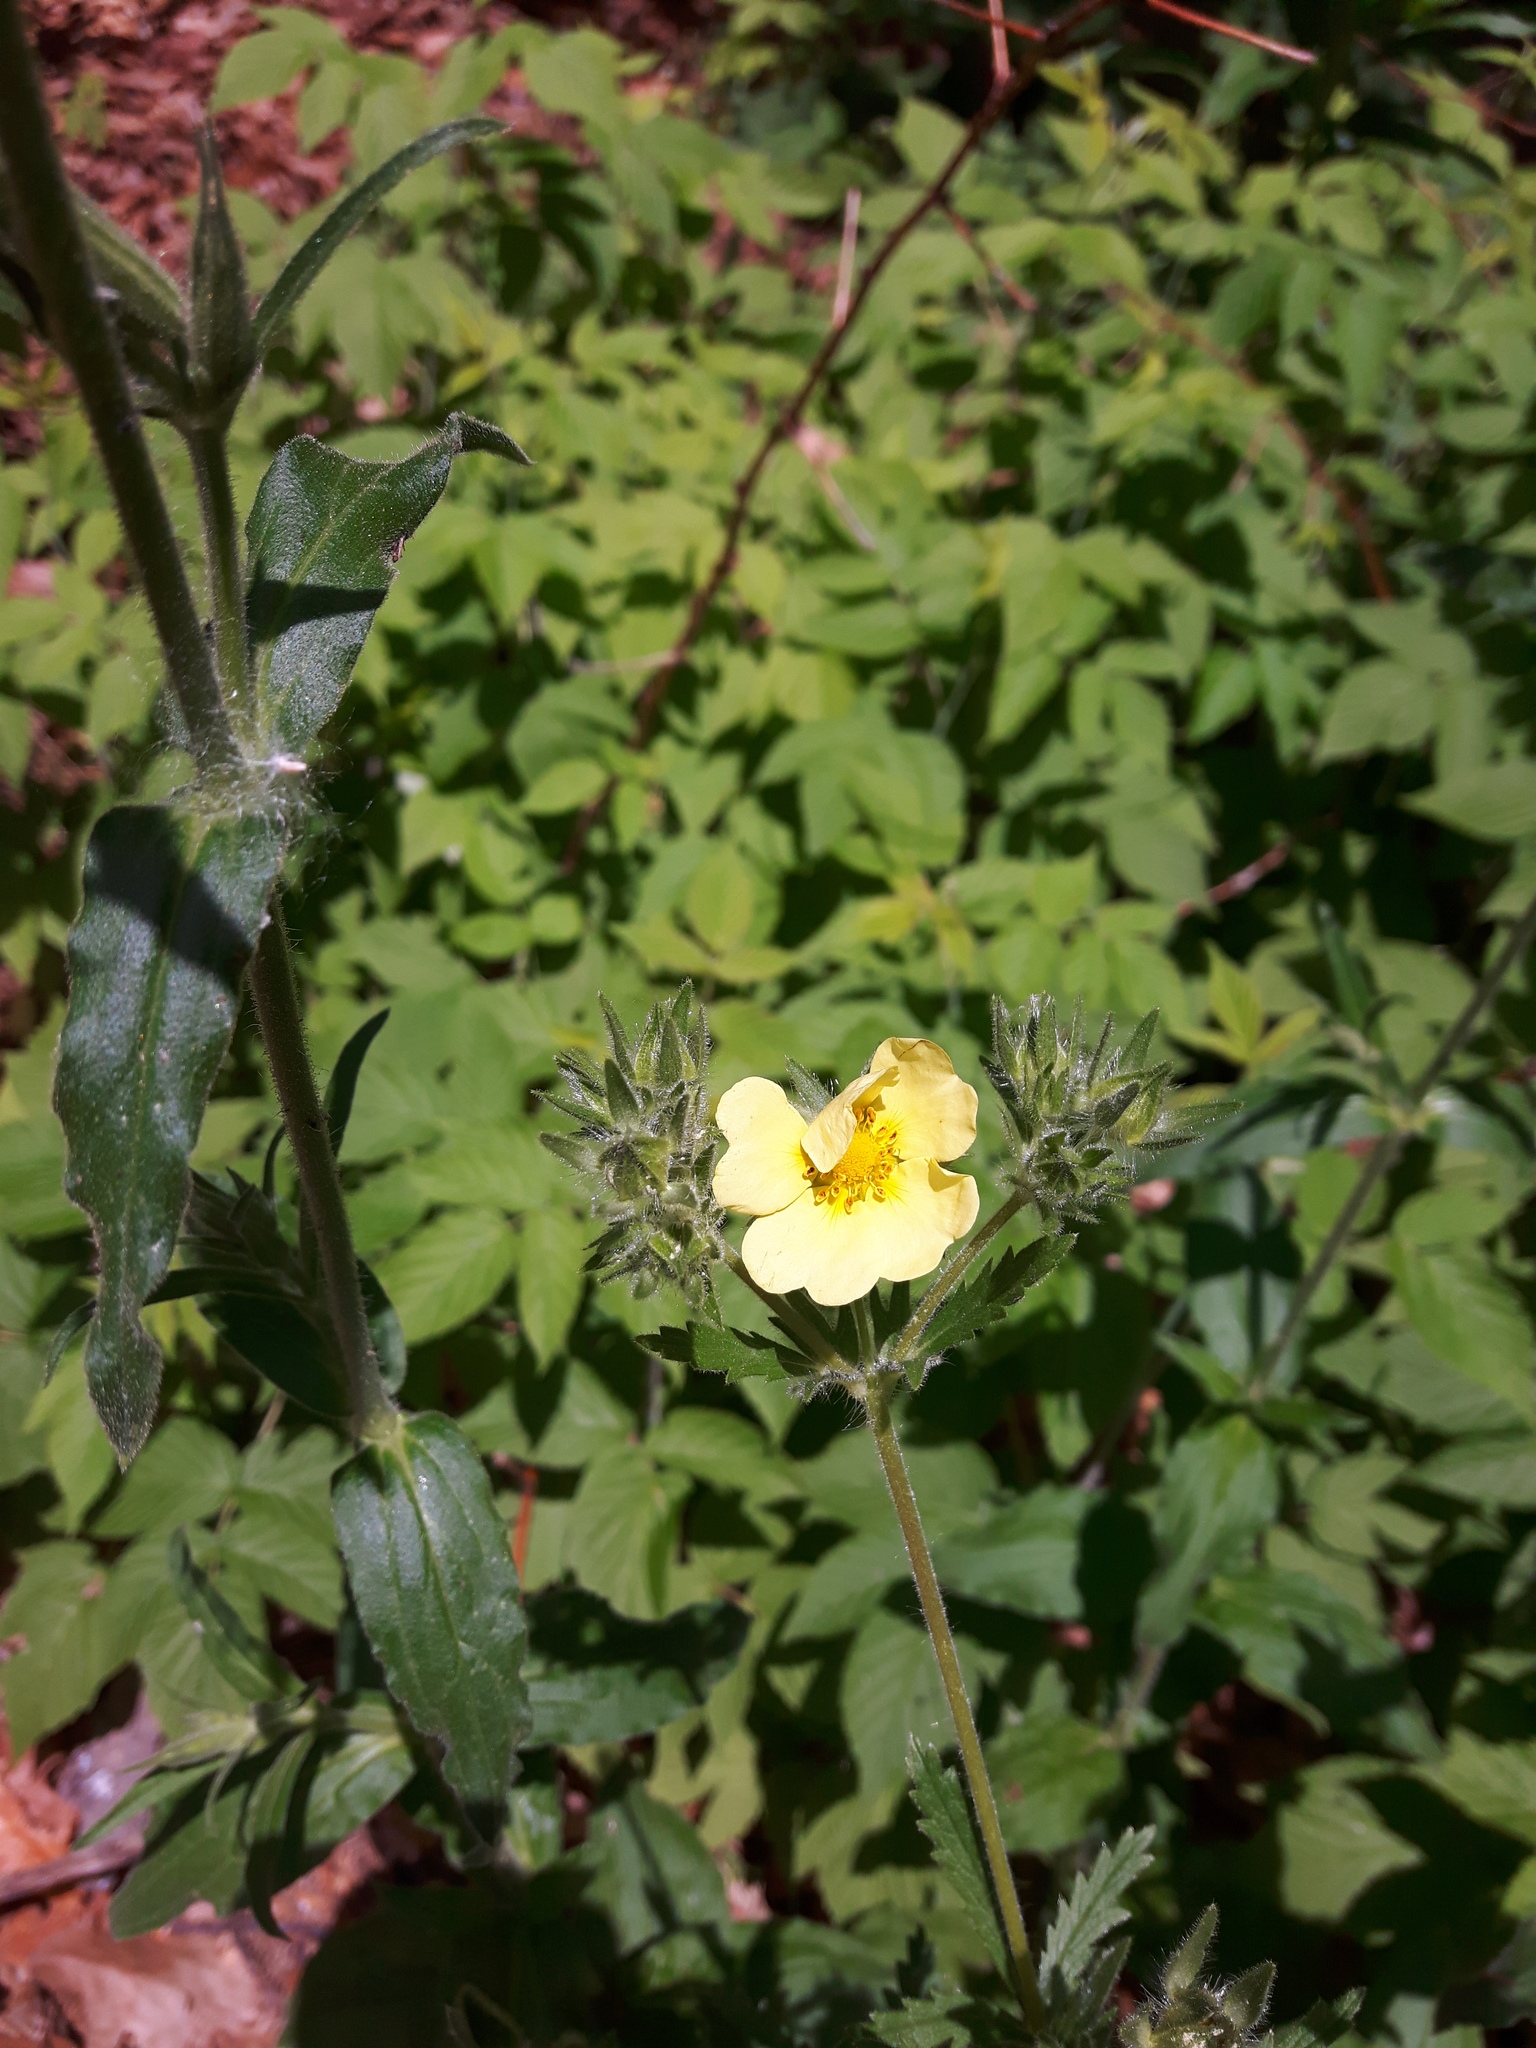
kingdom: Plantae
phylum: Tracheophyta
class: Magnoliopsida
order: Rosales
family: Rosaceae
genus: Potentilla
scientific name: Potentilla recta
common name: Sulphur cinquefoil
